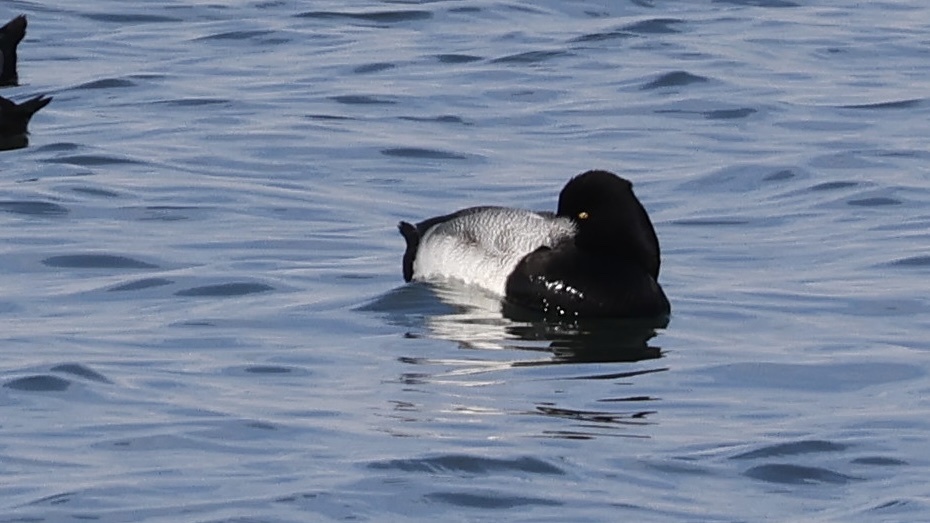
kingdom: Animalia
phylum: Chordata
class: Aves
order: Anseriformes
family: Anatidae
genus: Aythya
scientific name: Aythya affinis
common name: Lesser scaup
